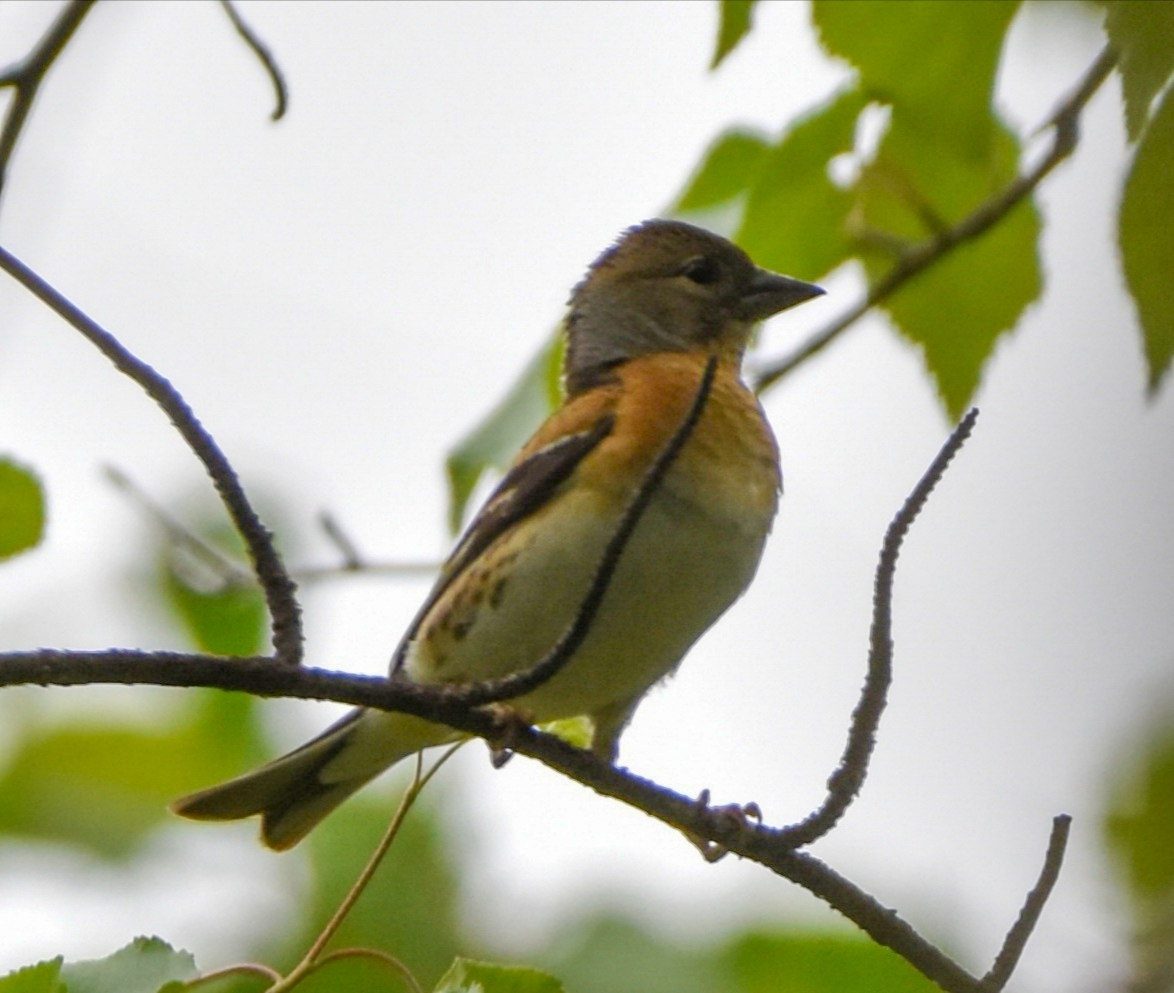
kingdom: Animalia
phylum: Chordata
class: Aves
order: Passeriformes
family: Fringillidae
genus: Fringilla
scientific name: Fringilla montifringilla
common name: Brambling
